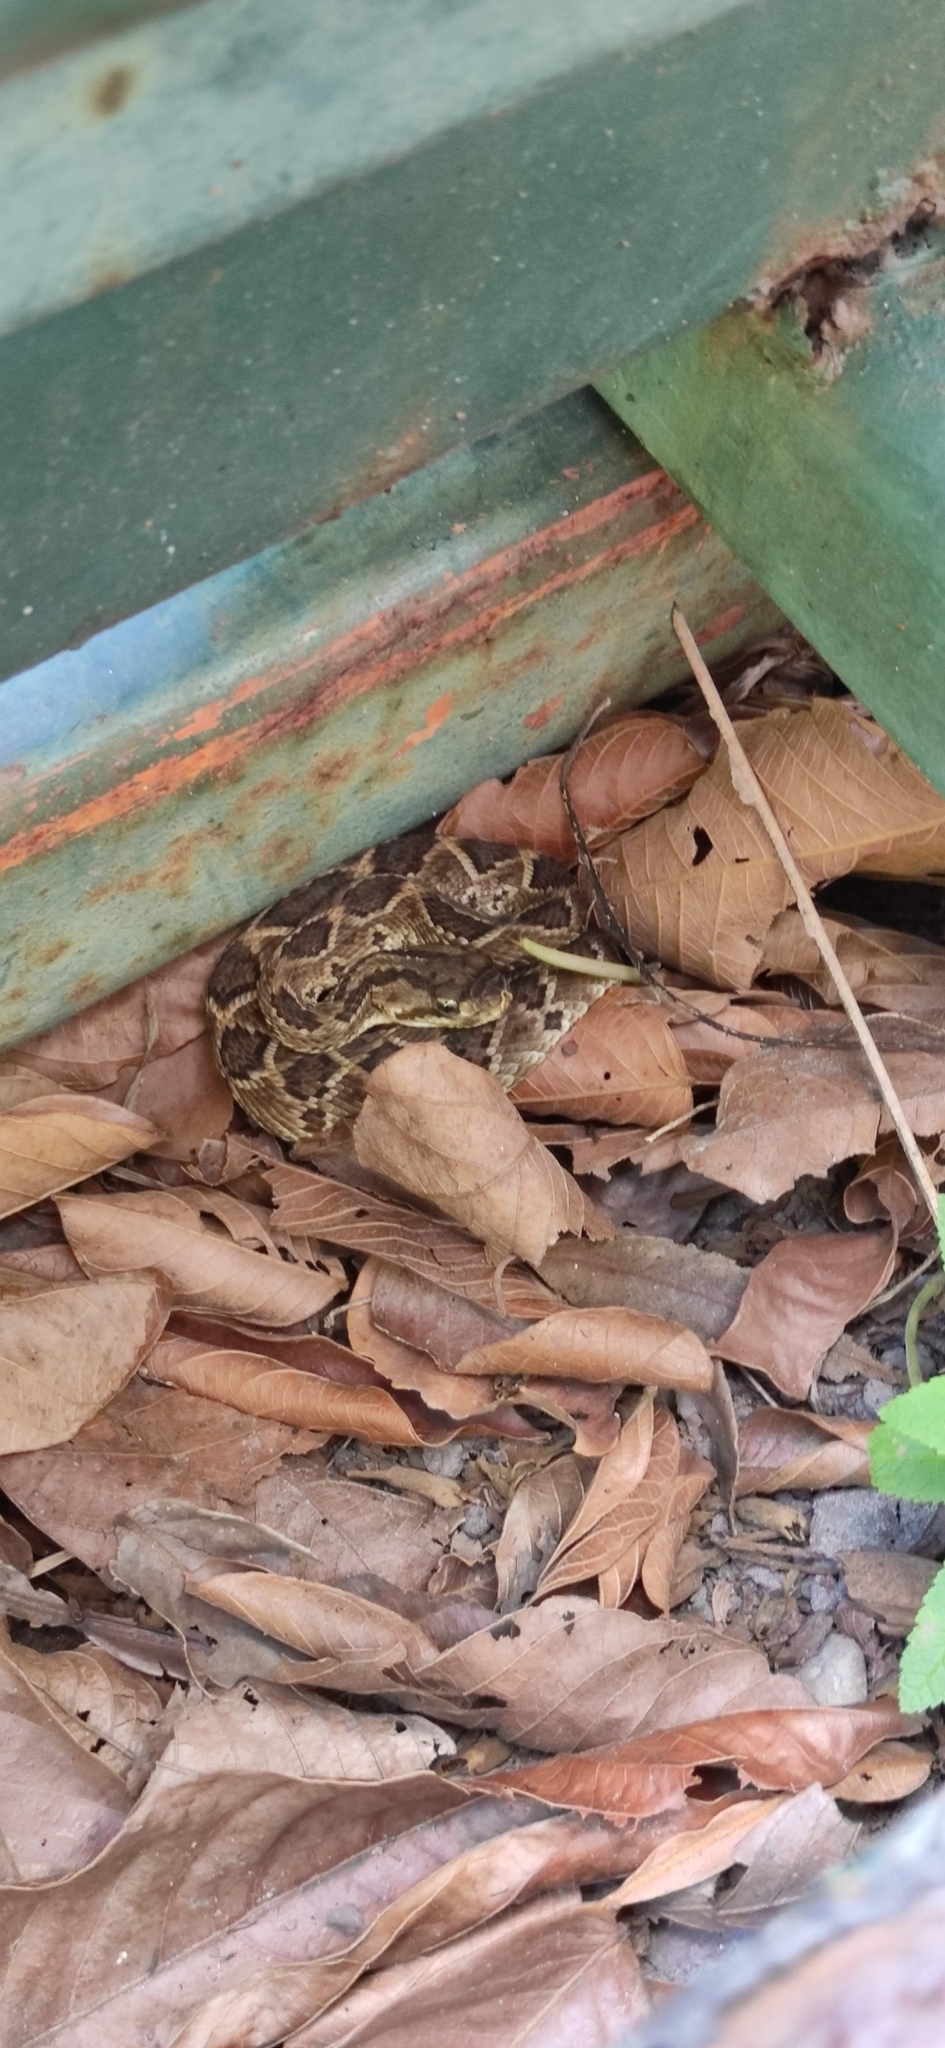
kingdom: Animalia
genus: Crotalus
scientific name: Crotalus durissus
